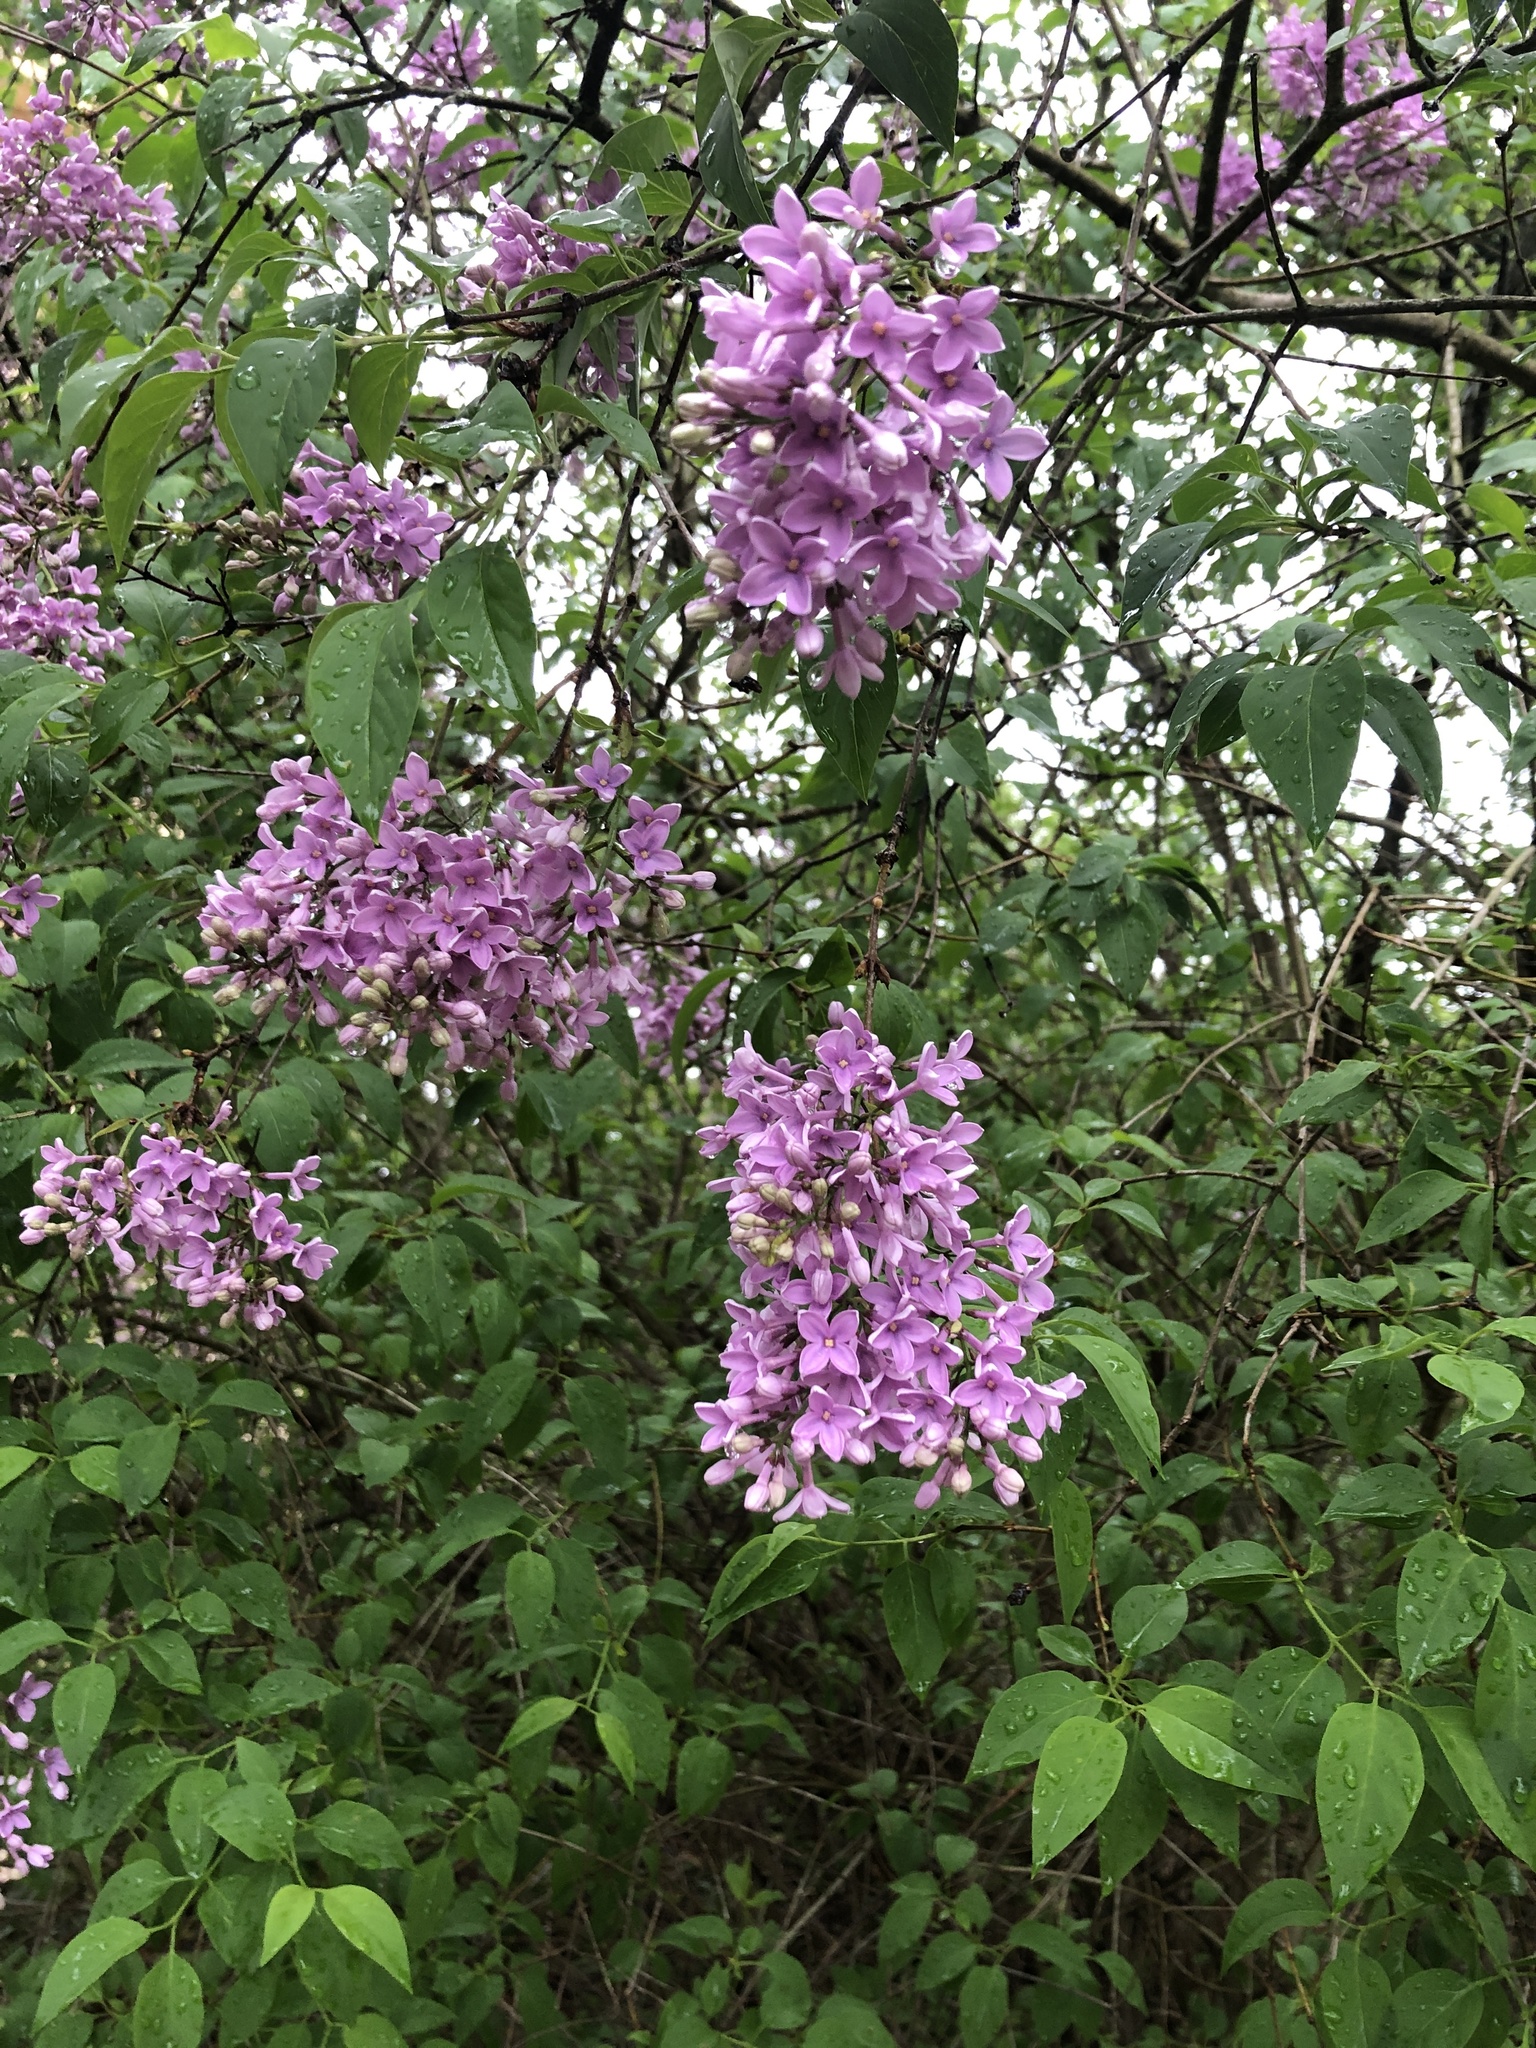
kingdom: Plantae
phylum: Tracheophyta
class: Magnoliopsida
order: Lamiales
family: Oleaceae
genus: Syringa
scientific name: Syringa vulgaris
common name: Common lilac
